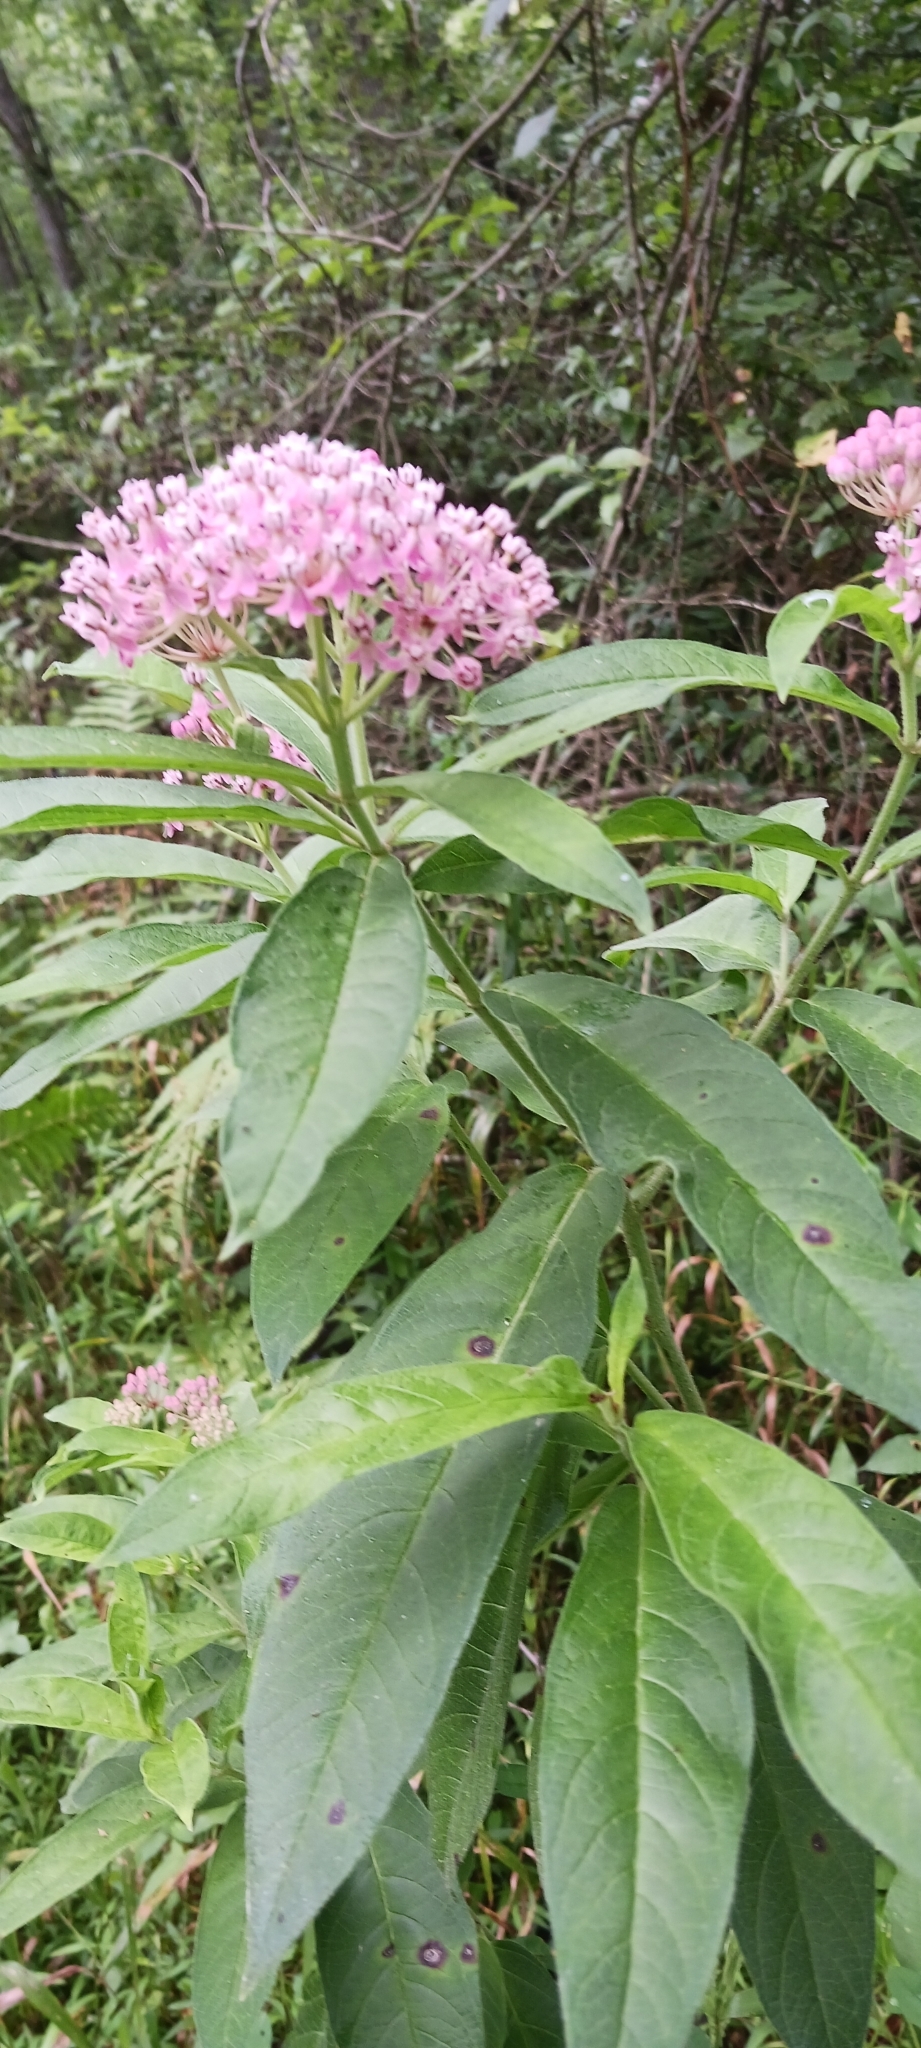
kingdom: Plantae
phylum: Tracheophyta
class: Magnoliopsida
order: Gentianales
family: Apocynaceae
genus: Asclepias
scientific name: Asclepias incarnata
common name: Swamp milkweed
